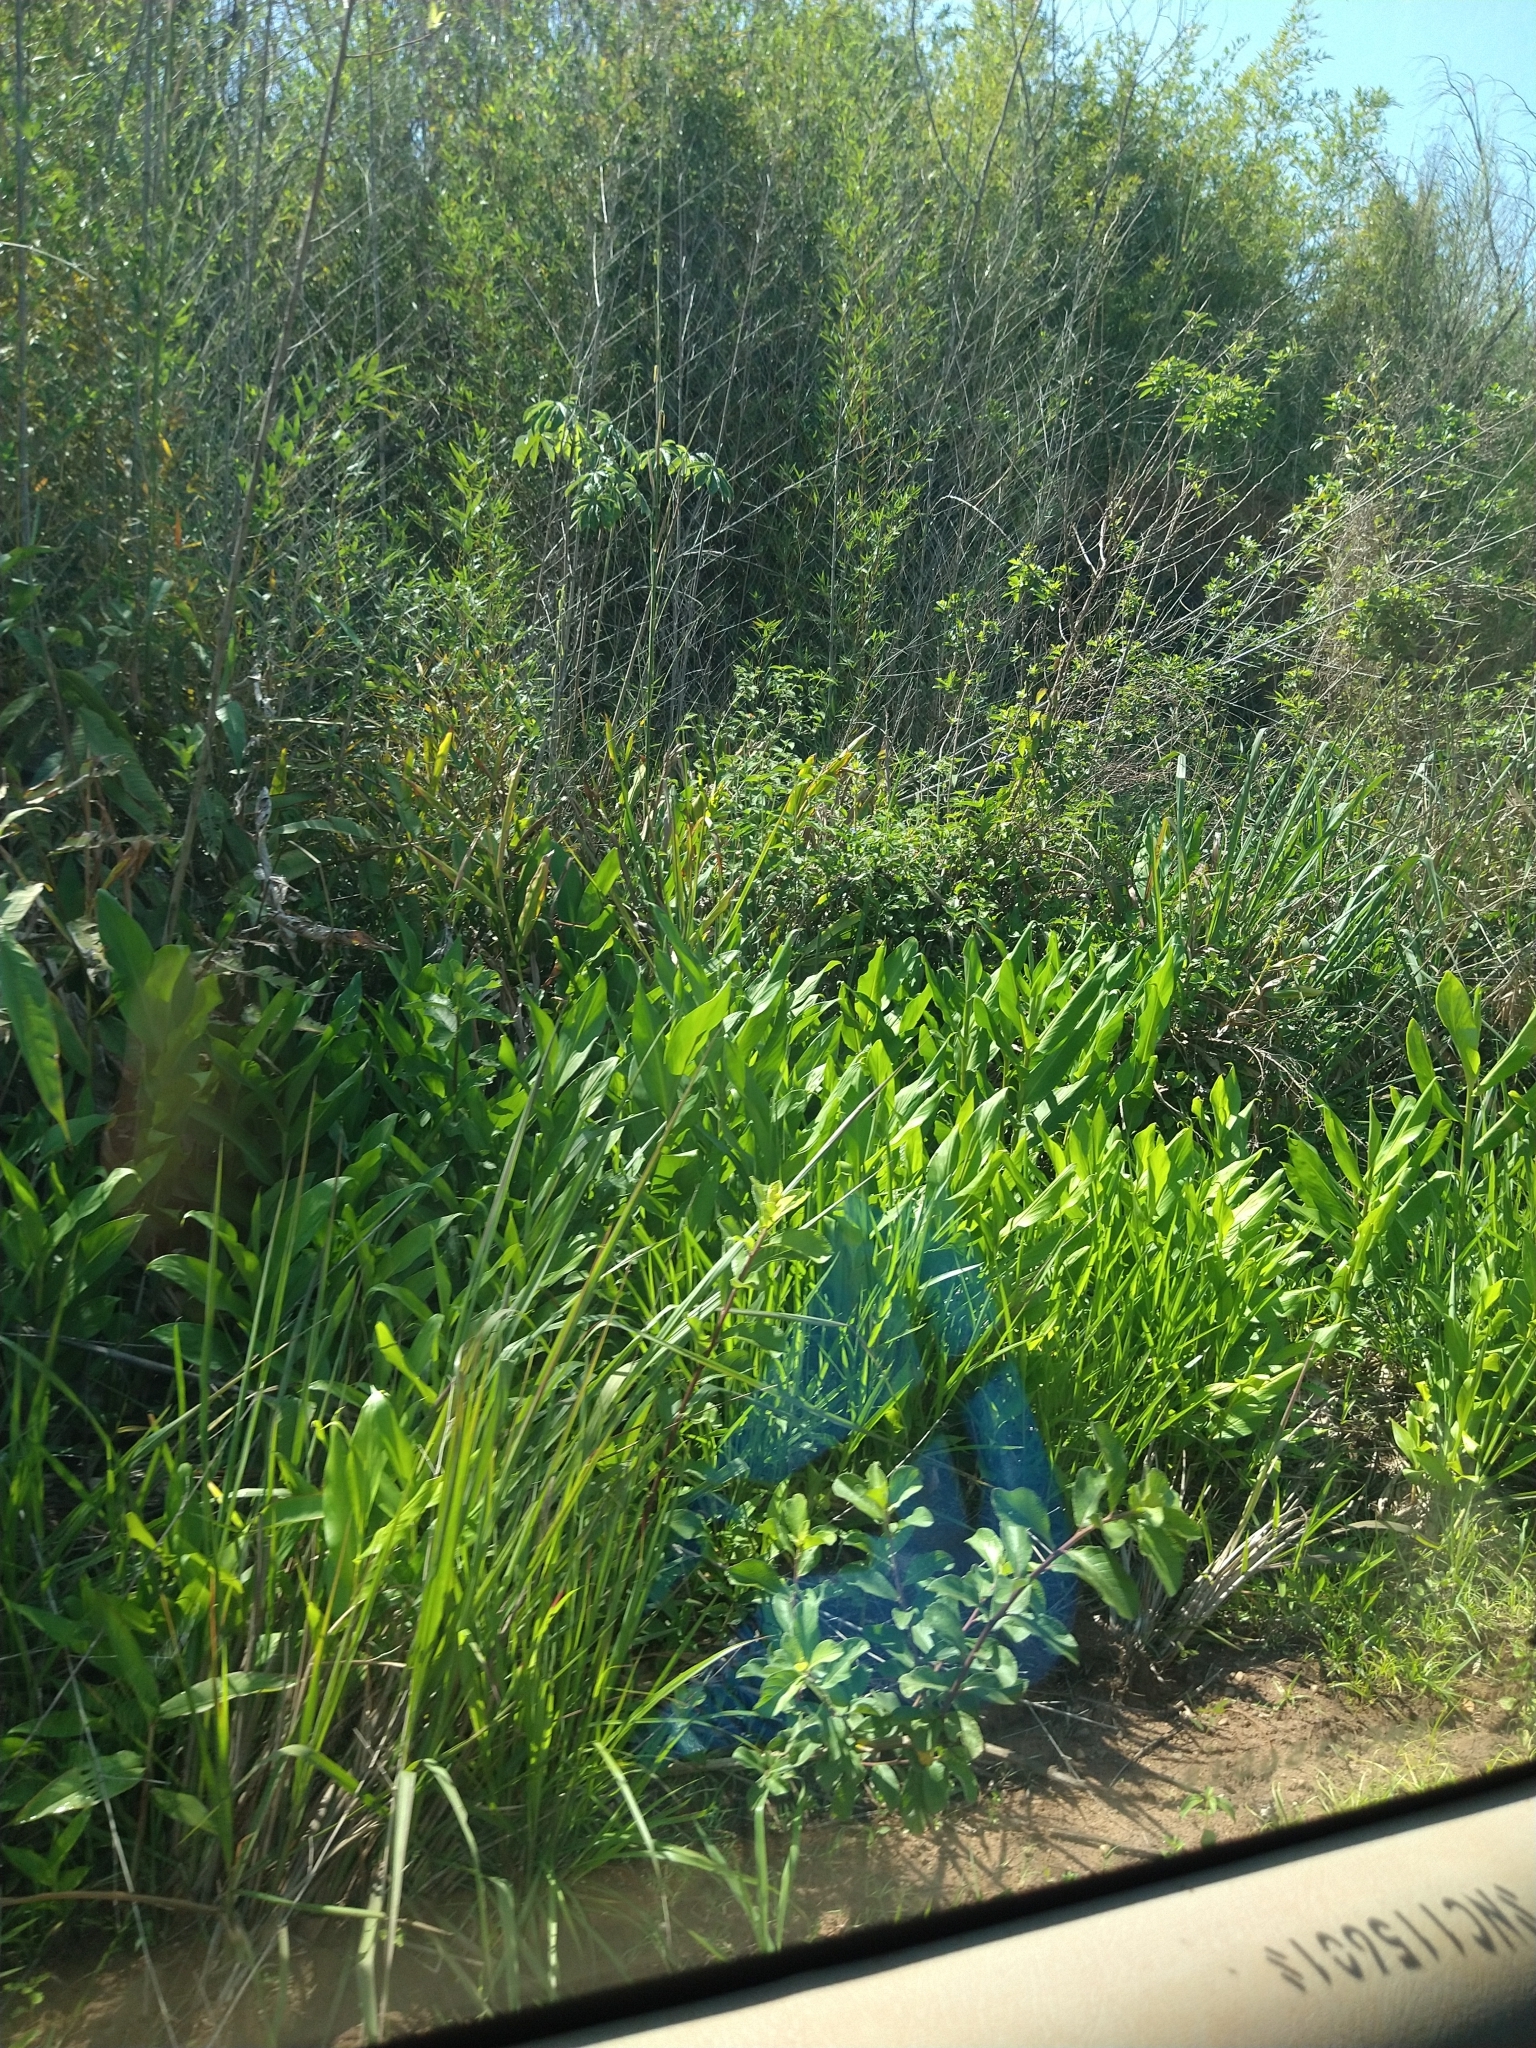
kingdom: Plantae
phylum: Tracheophyta
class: Liliopsida
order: Zingiberales
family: Zingiberaceae
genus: Hedychium
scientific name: Hedychium coronarium
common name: White garland-lily
